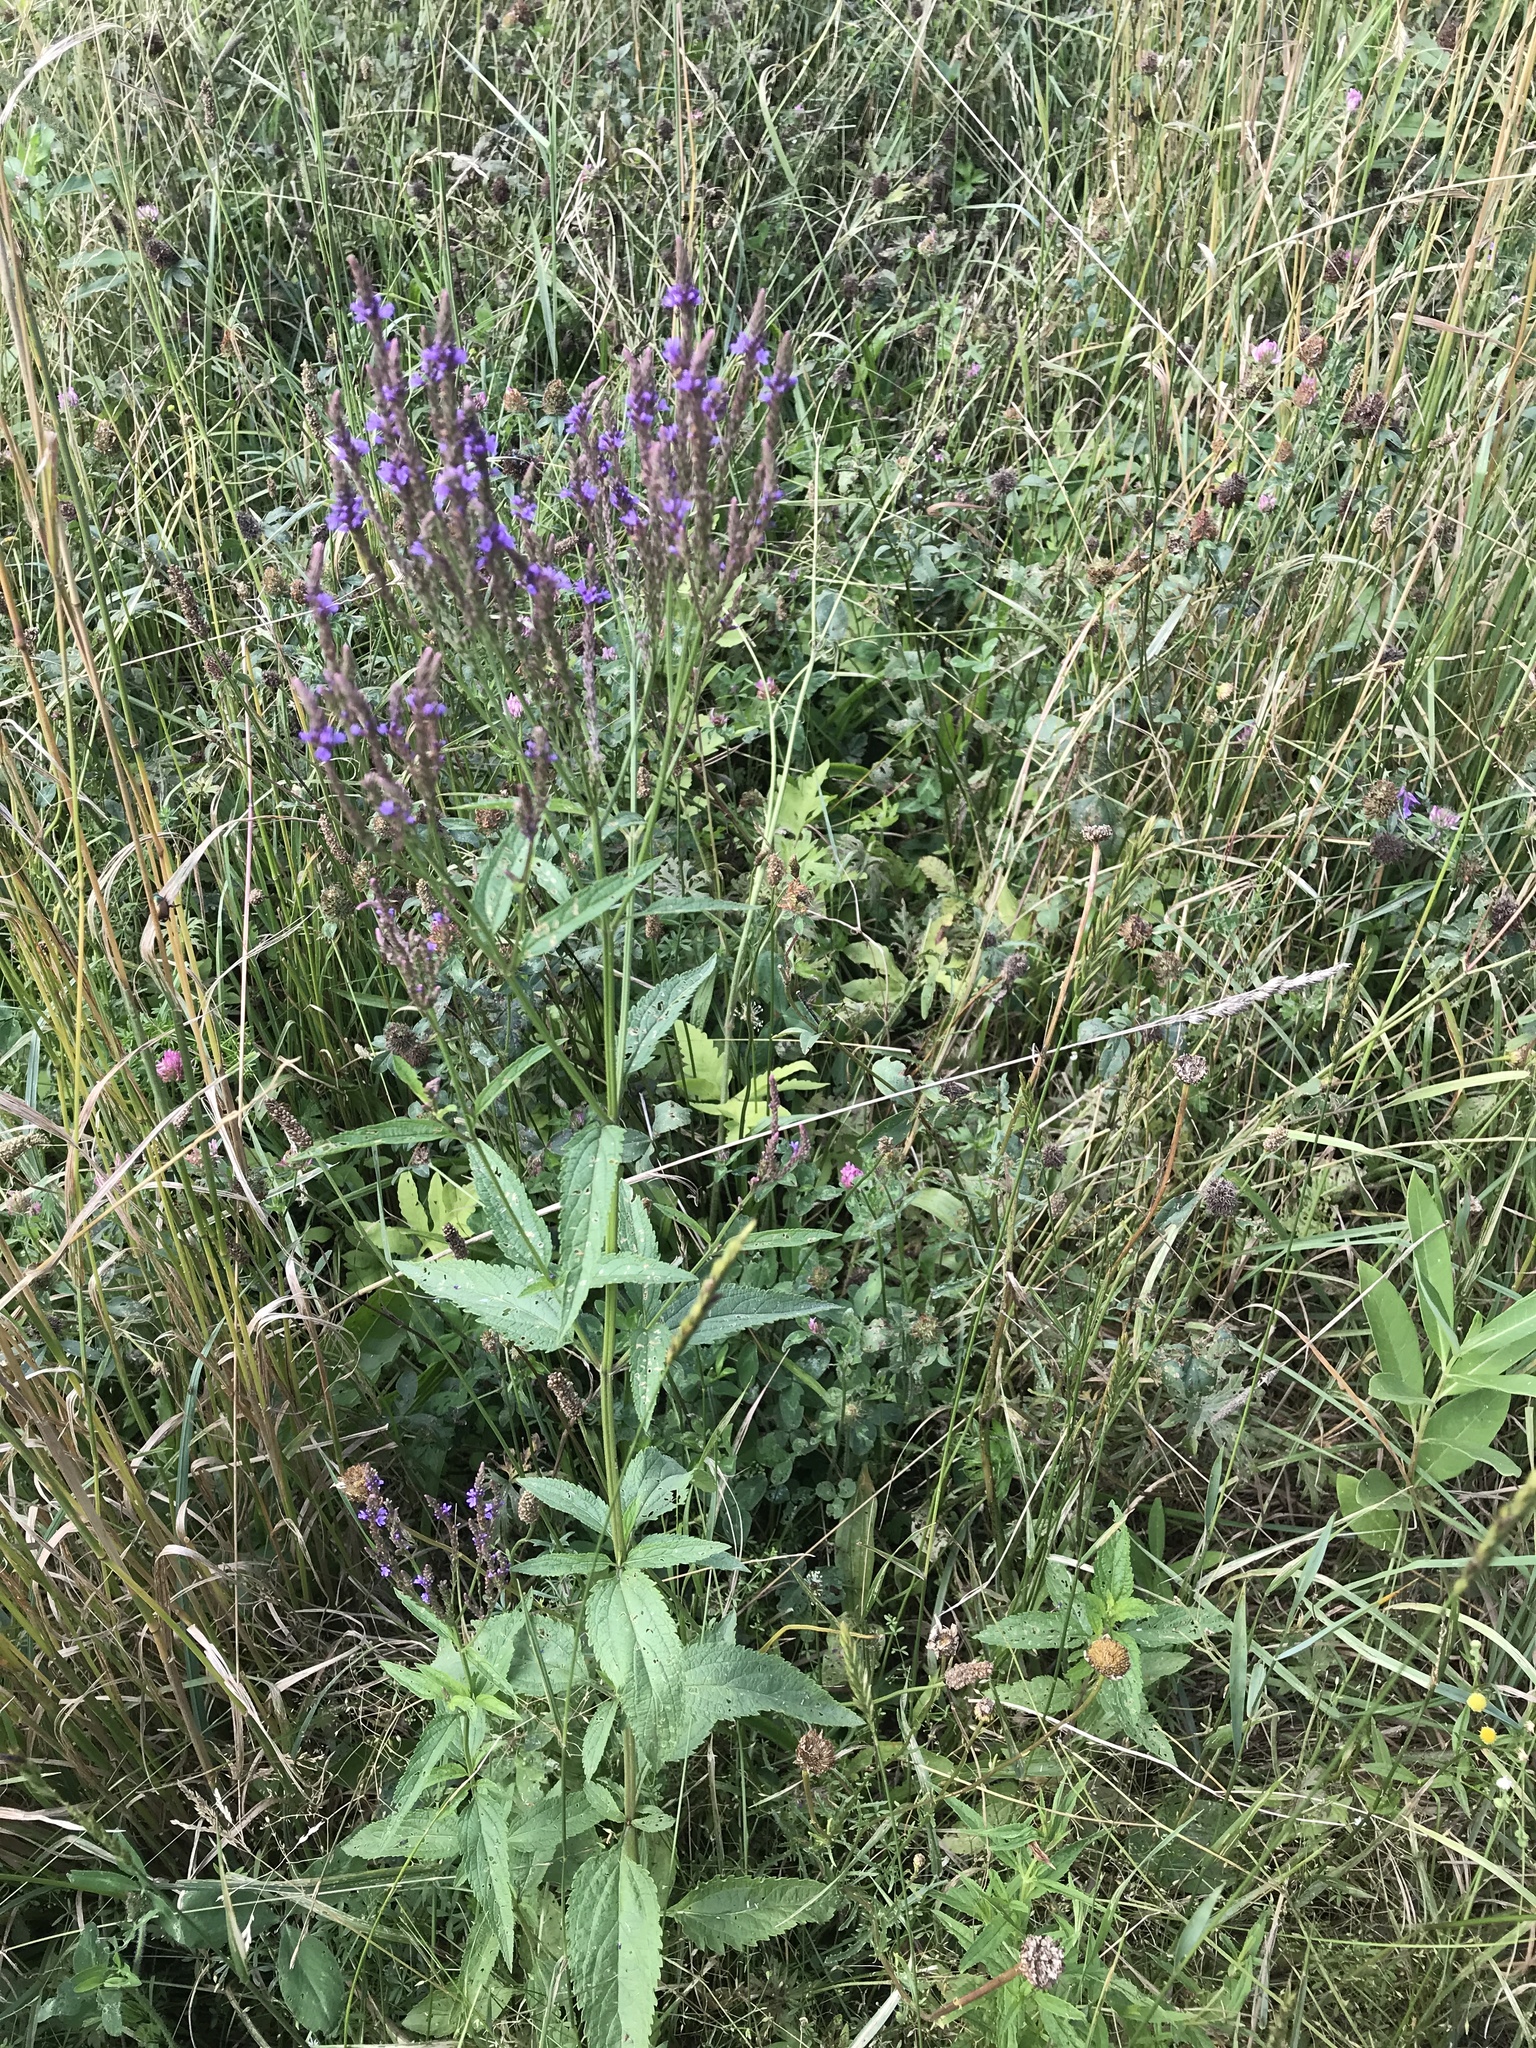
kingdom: Plantae
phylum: Tracheophyta
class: Magnoliopsida
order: Lamiales
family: Verbenaceae
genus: Verbena
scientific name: Verbena hastata
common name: American blue vervain
